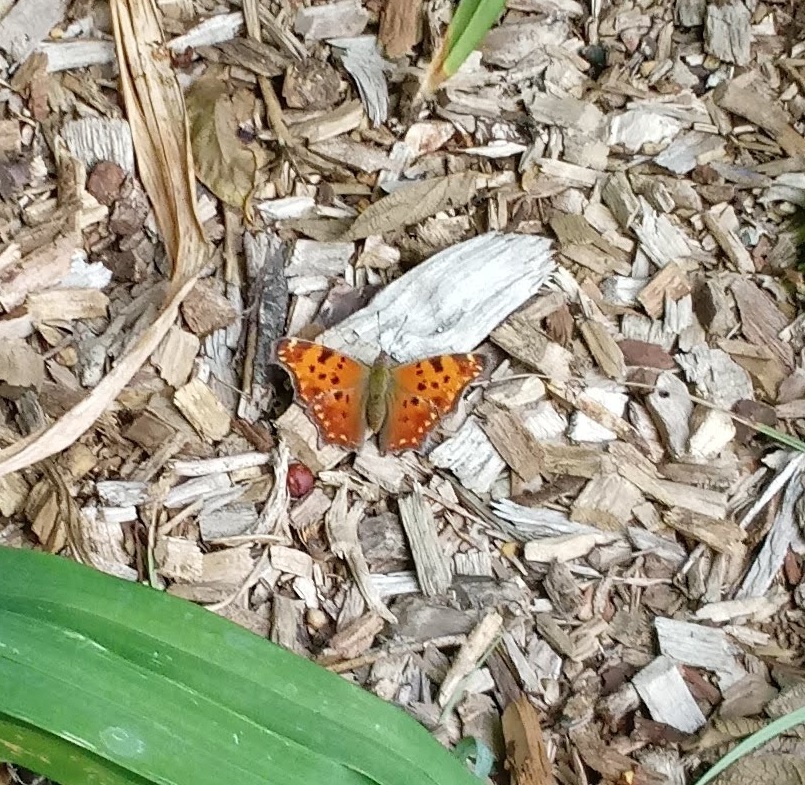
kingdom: Animalia
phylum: Arthropoda
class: Insecta
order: Lepidoptera
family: Nymphalidae
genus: Polygonia
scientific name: Polygonia comma
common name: Eastern comma
